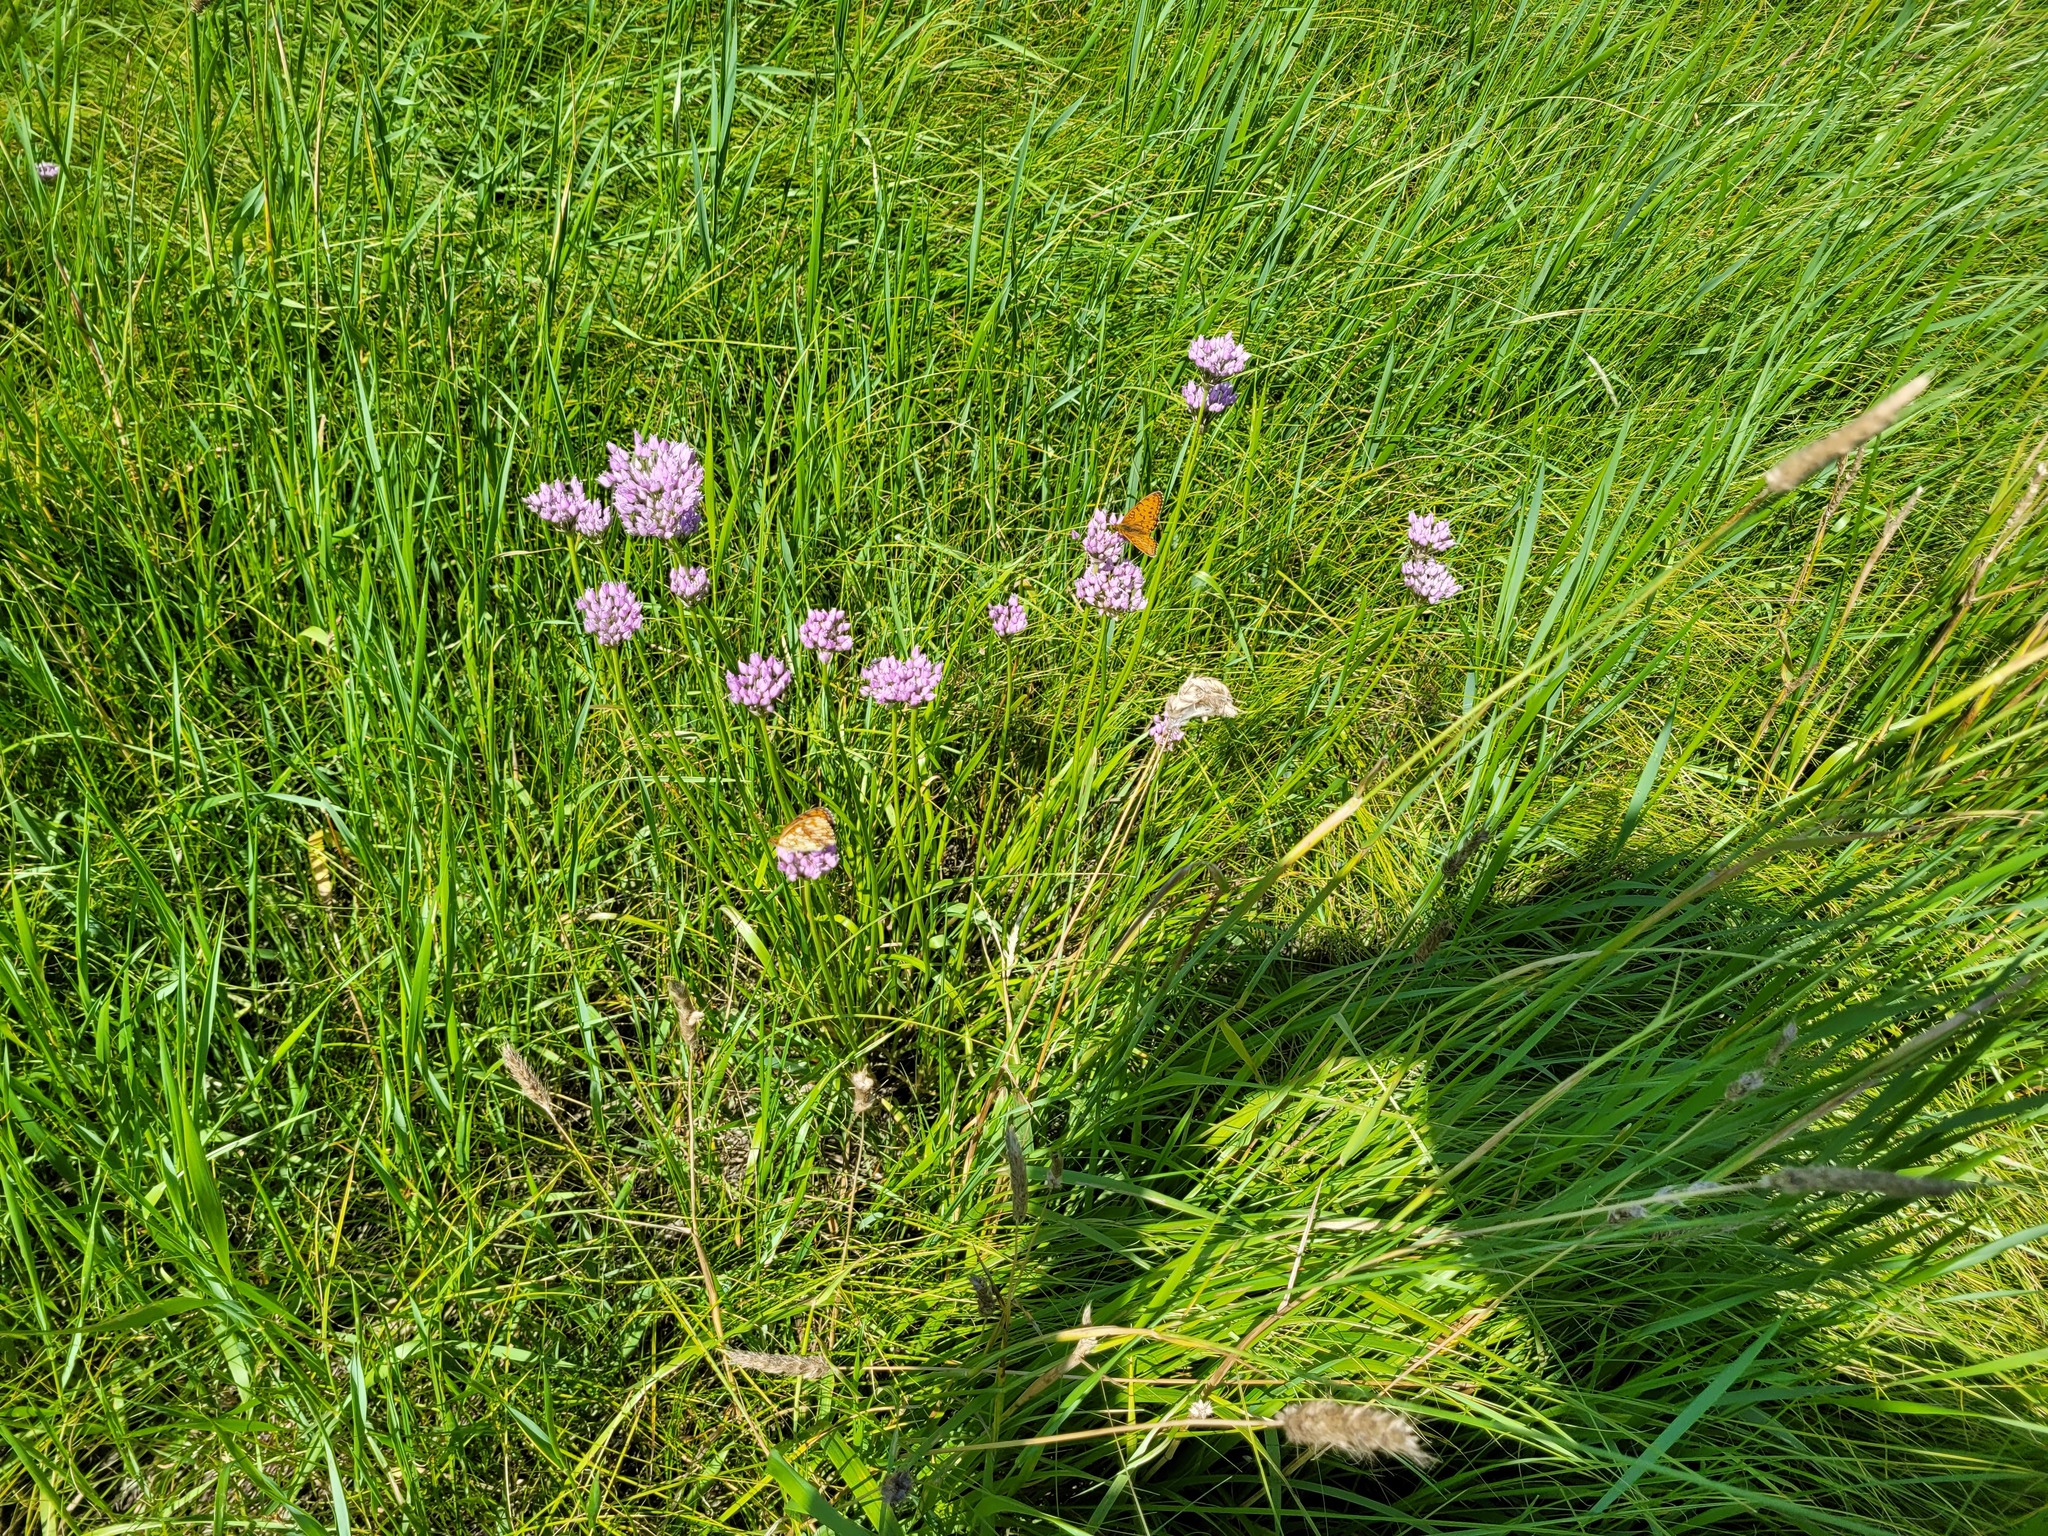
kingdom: Plantae
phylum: Tracheophyta
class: Liliopsida
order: Asparagales
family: Amaryllidaceae
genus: Allium
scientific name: Allium angulosum
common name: Mouse garlic
